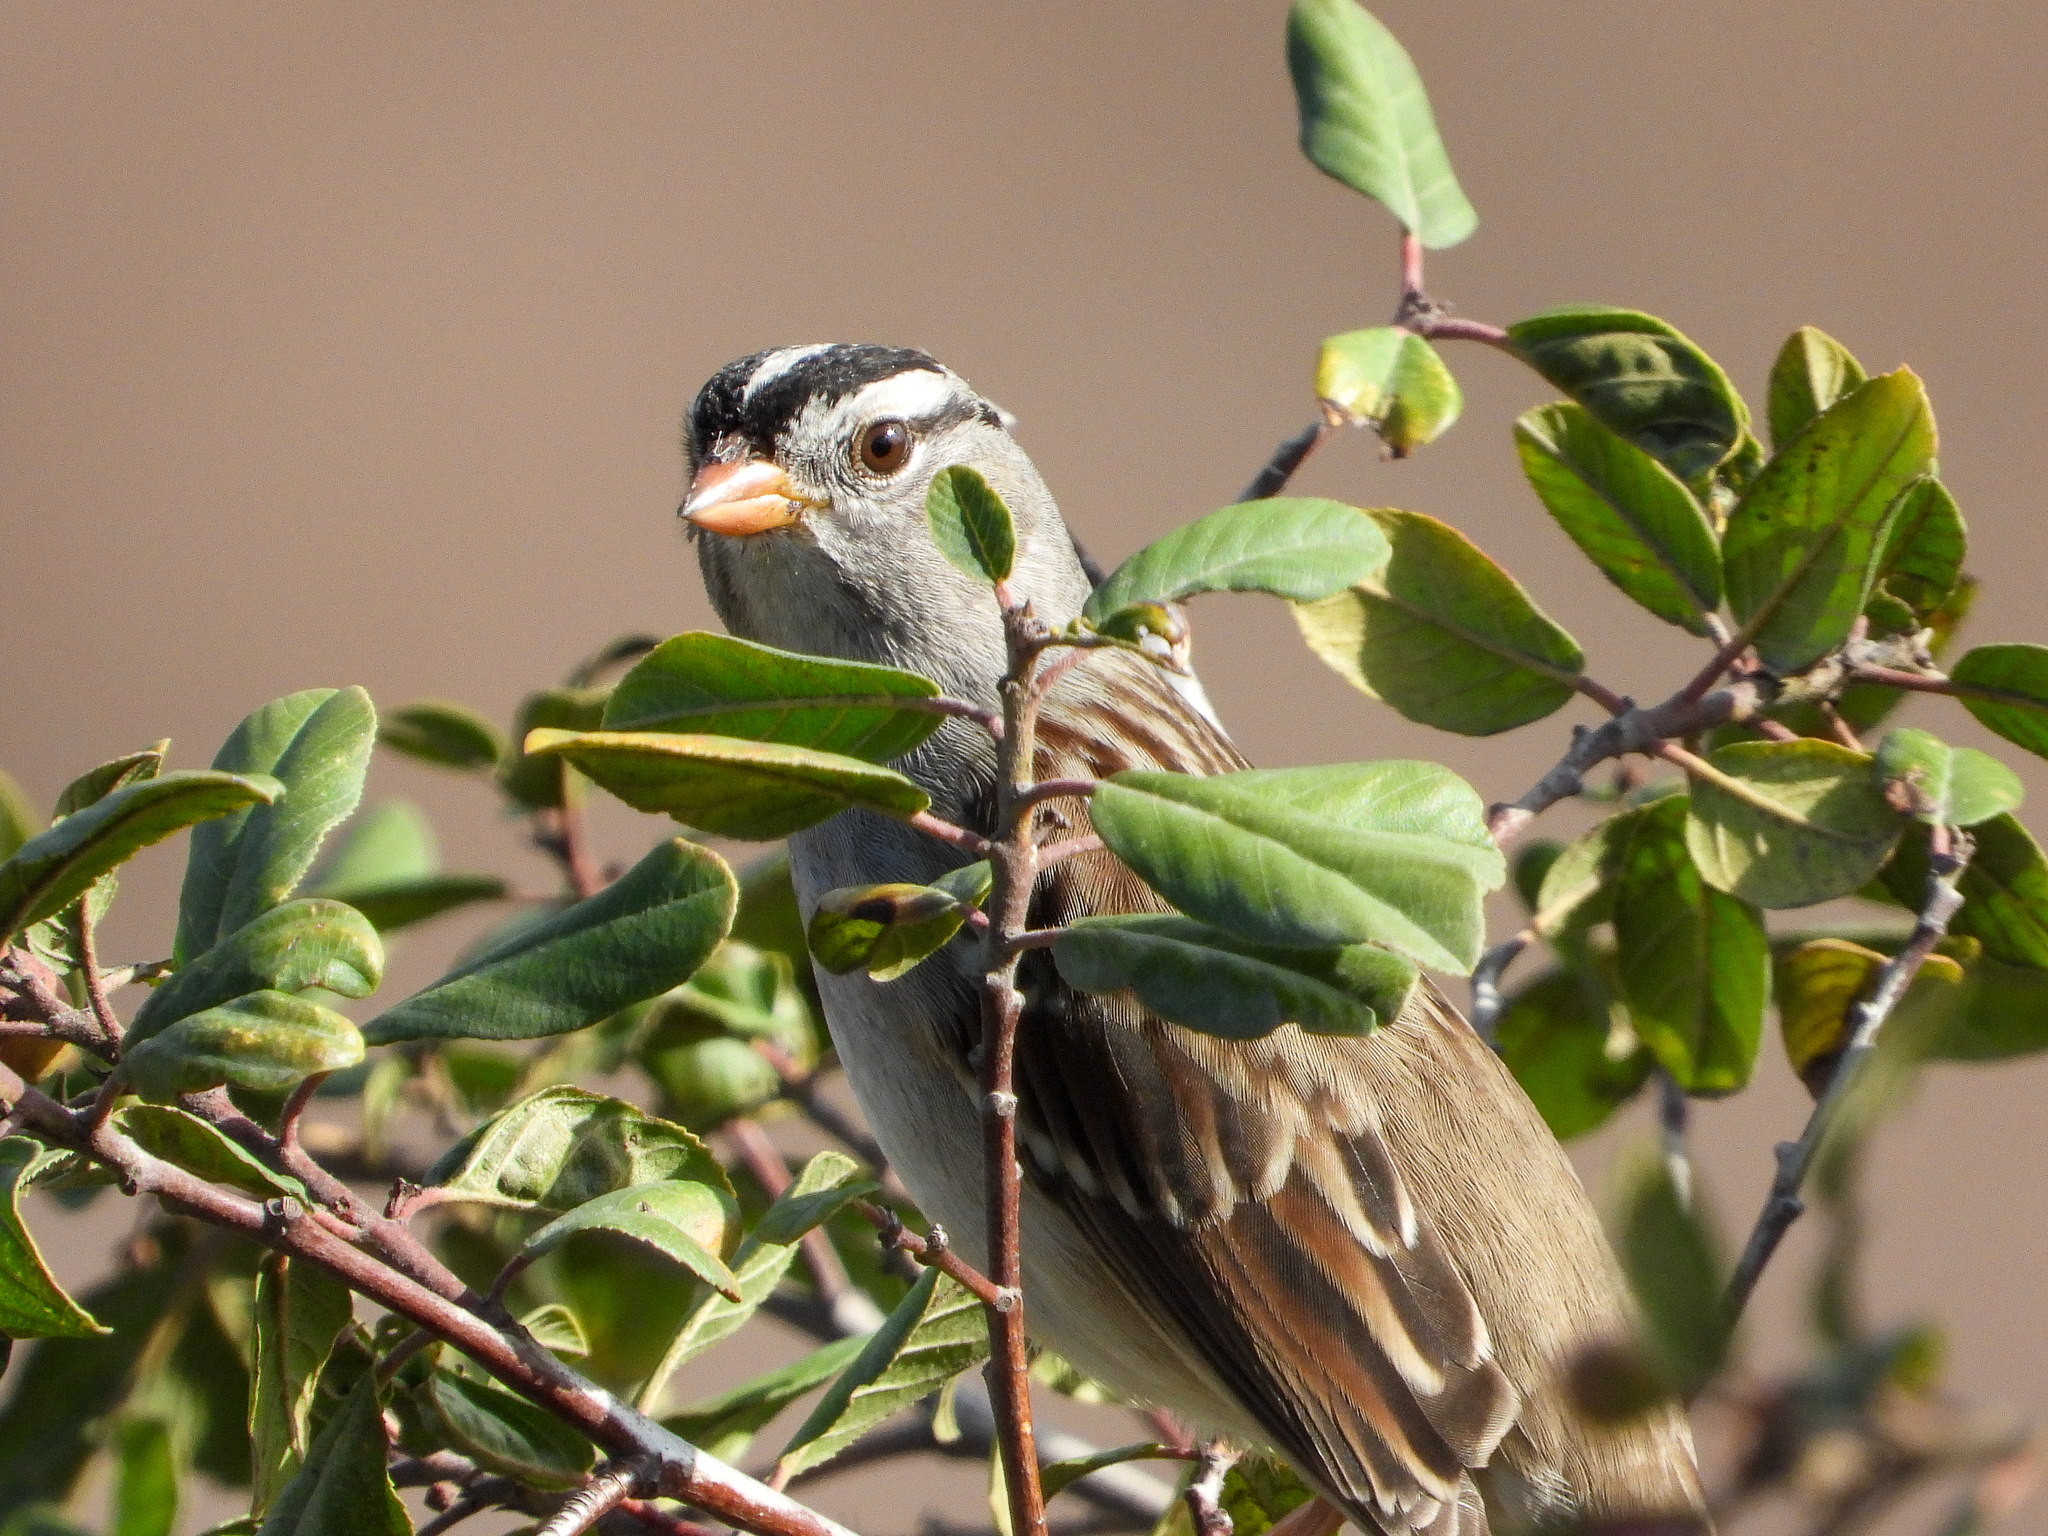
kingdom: Animalia
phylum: Chordata
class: Aves
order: Passeriformes
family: Passerellidae
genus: Zonotrichia
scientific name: Zonotrichia leucophrys
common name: White-crowned sparrow
